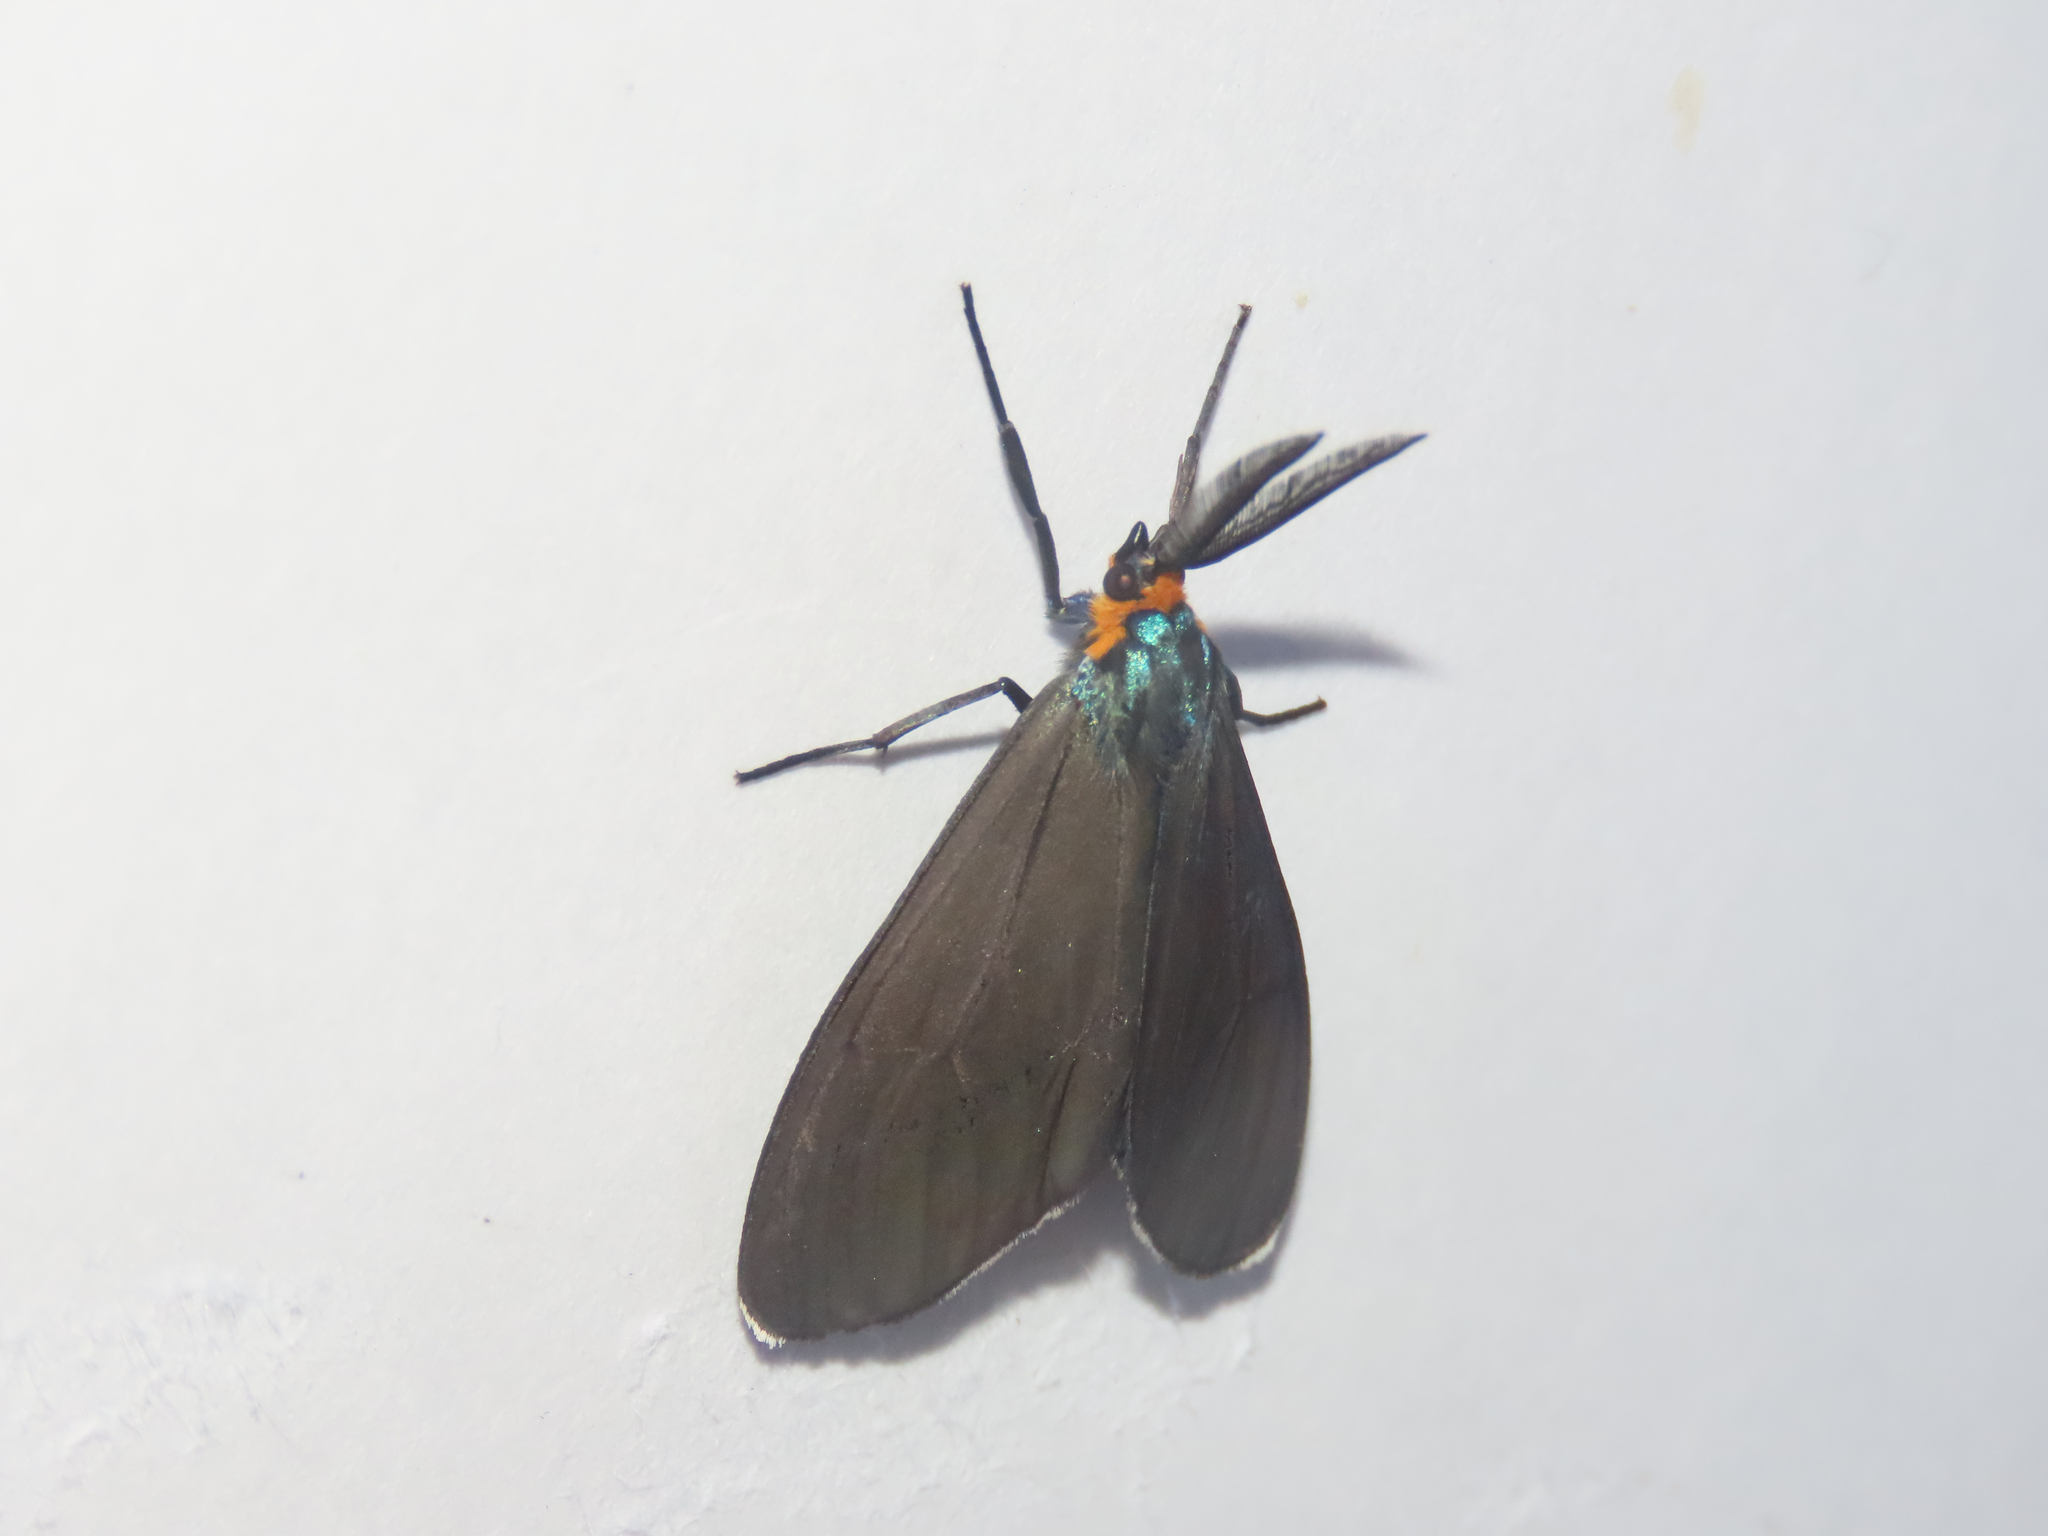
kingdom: Animalia
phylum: Arthropoda
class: Insecta
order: Lepidoptera
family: Erebidae
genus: Ctenucha
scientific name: Ctenucha virginica
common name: Virginia ctenucha moth
